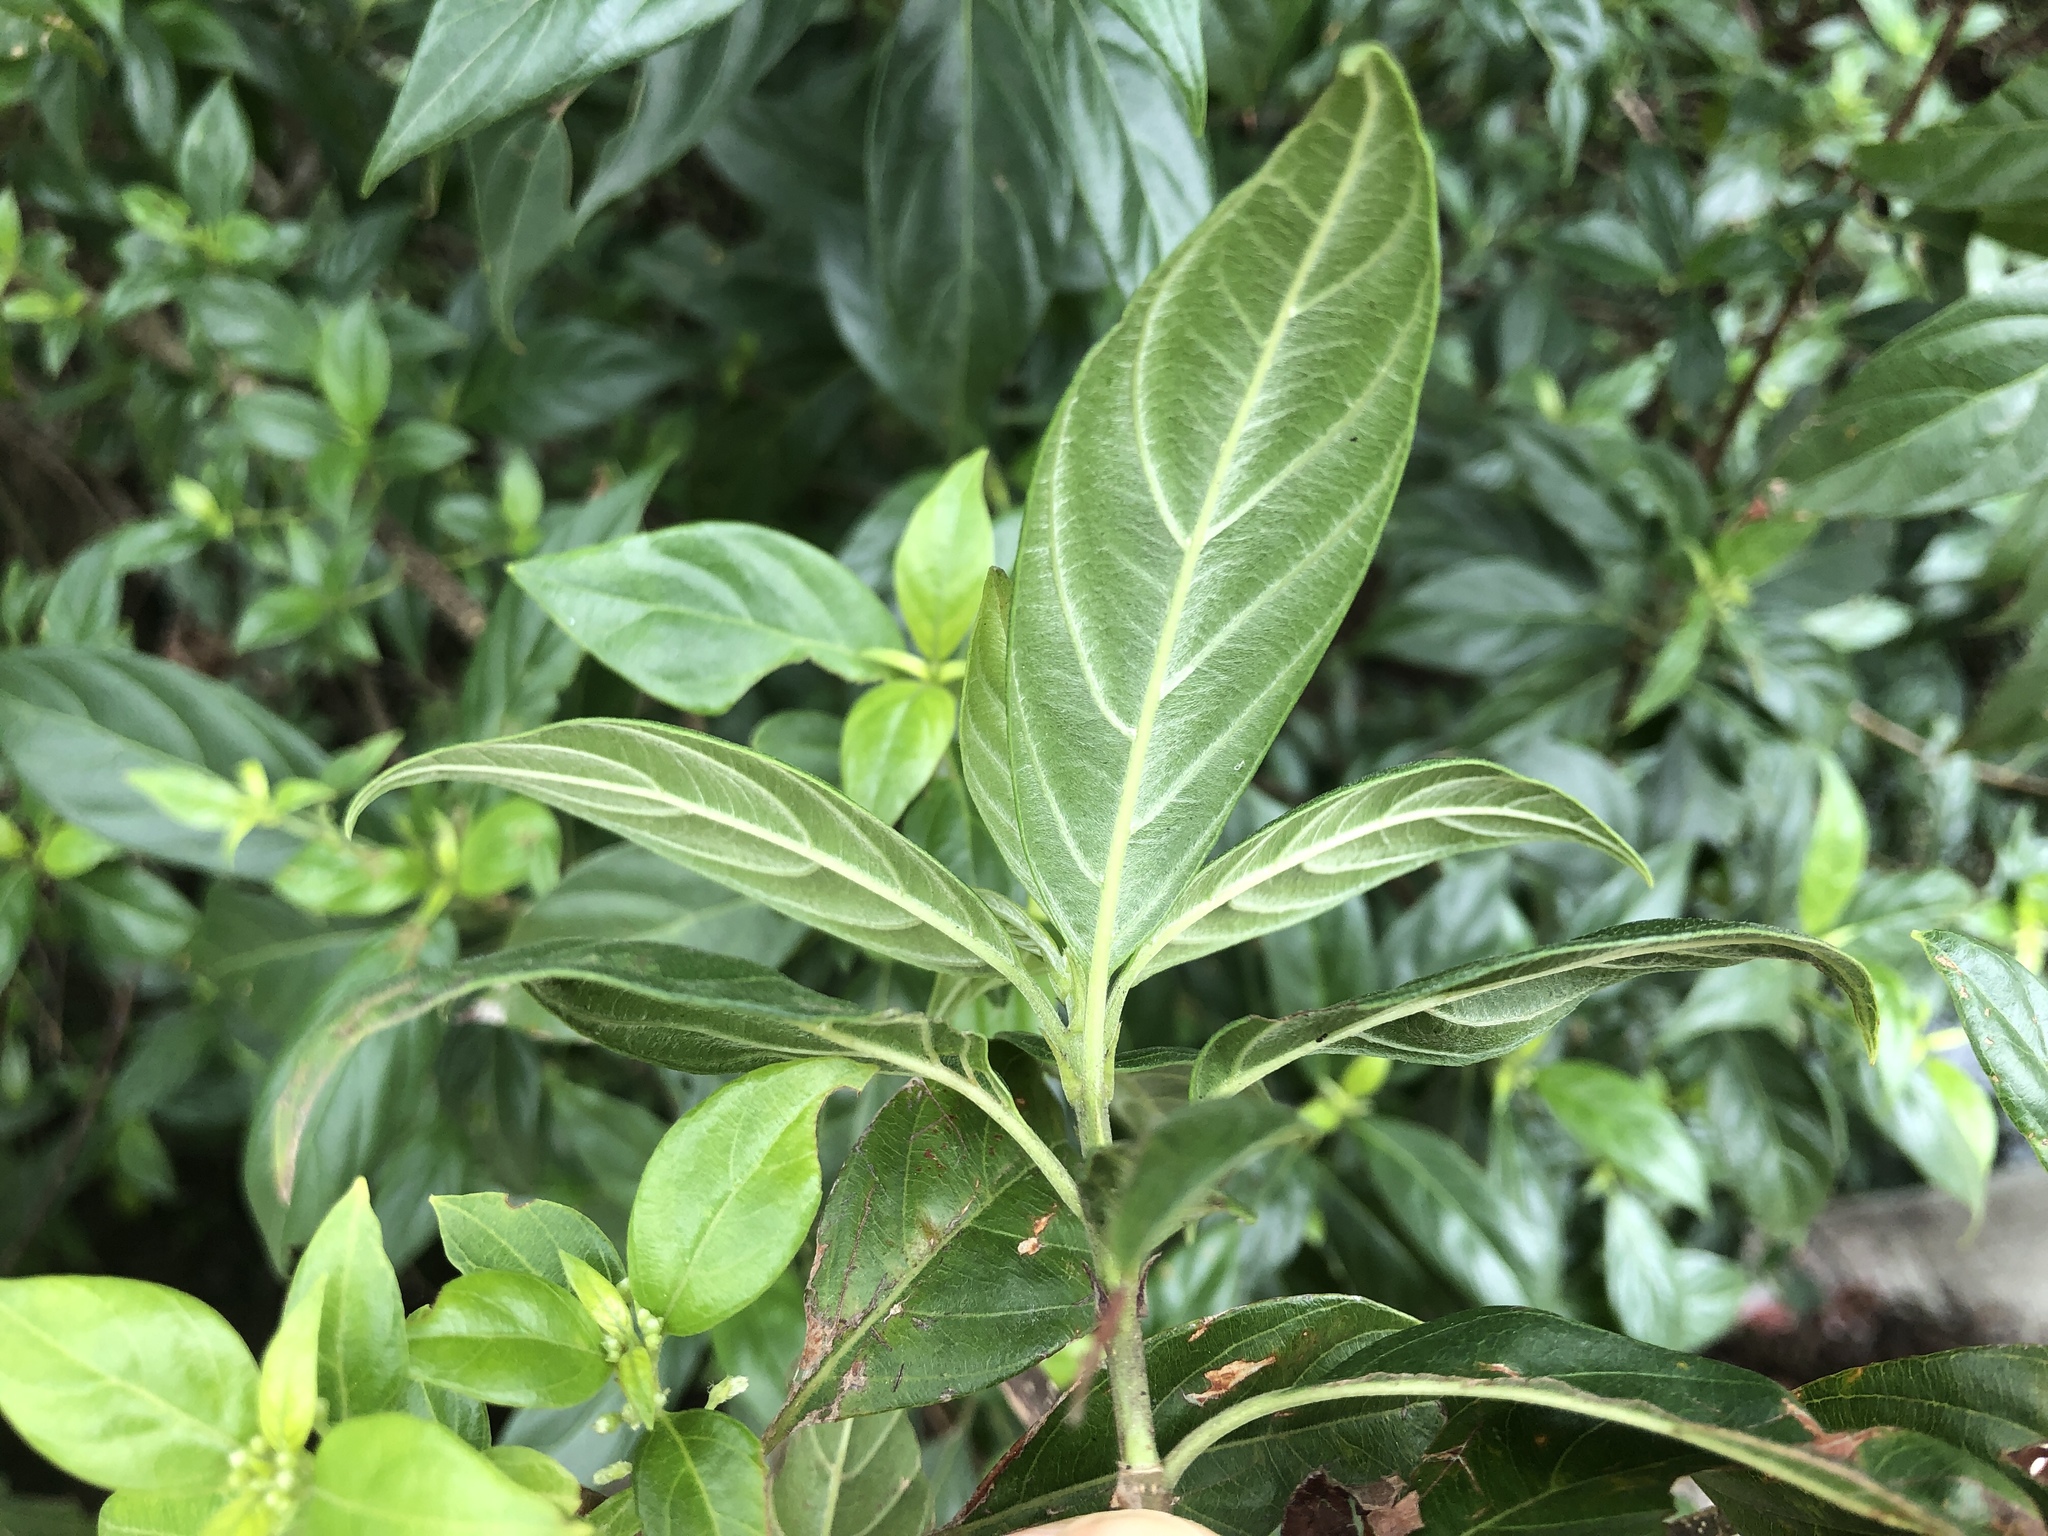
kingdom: Plantae
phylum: Tracheophyta
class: Magnoliopsida
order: Gentianales
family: Rubiaceae
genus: Guettardella
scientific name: Guettardella chinensis
